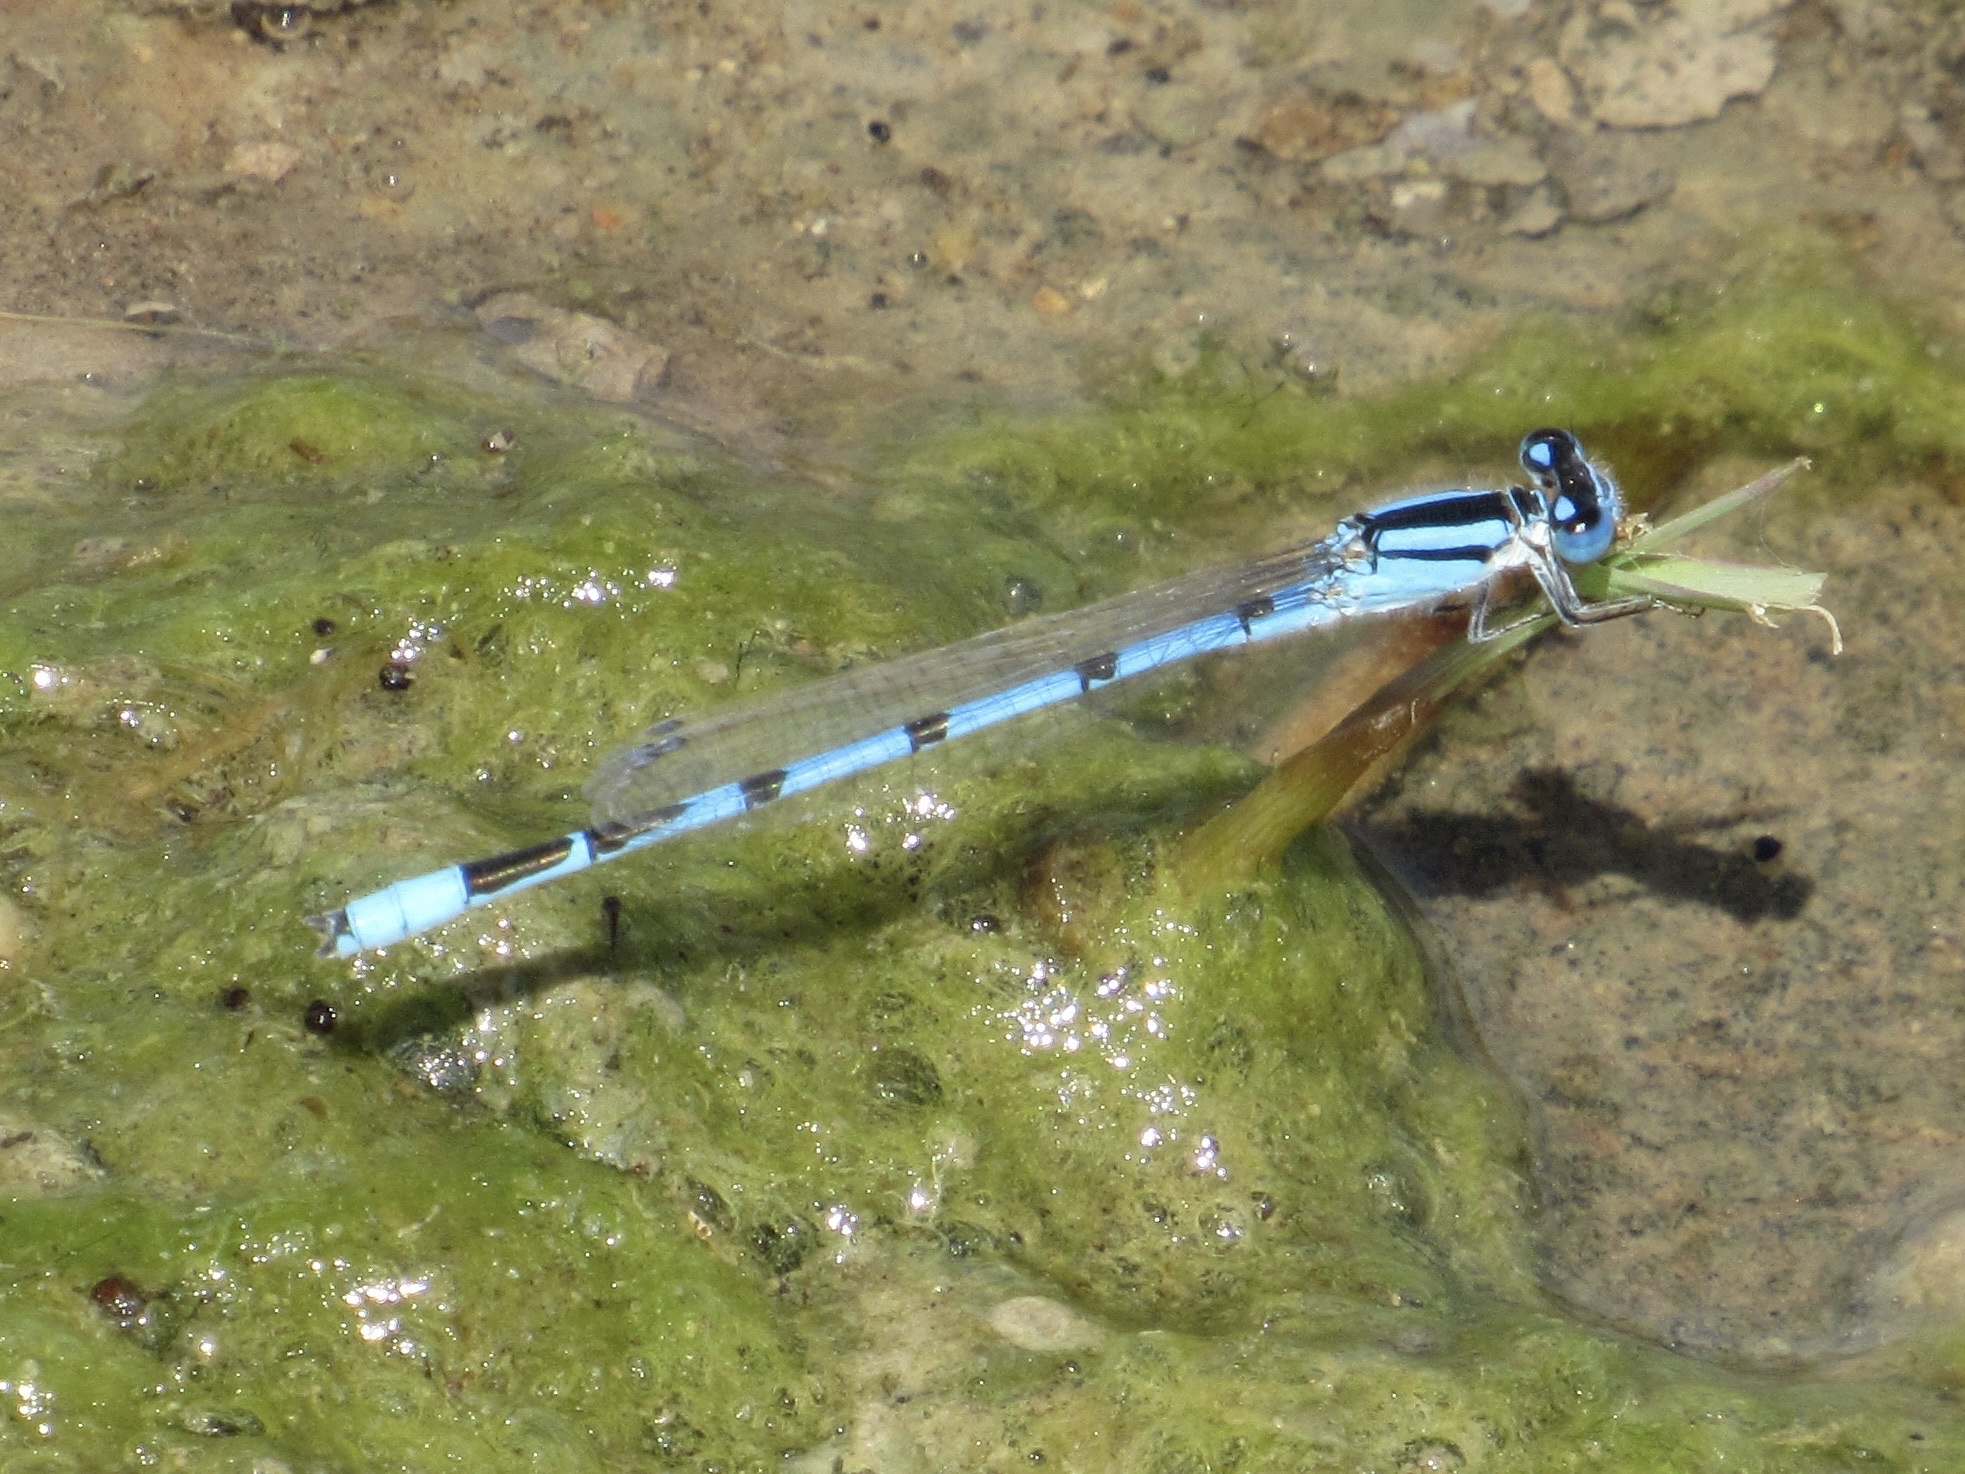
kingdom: Animalia
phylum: Arthropoda
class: Insecta
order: Odonata
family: Coenagrionidae
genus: Enallagma
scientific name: Enallagma civile
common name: Damselfly
